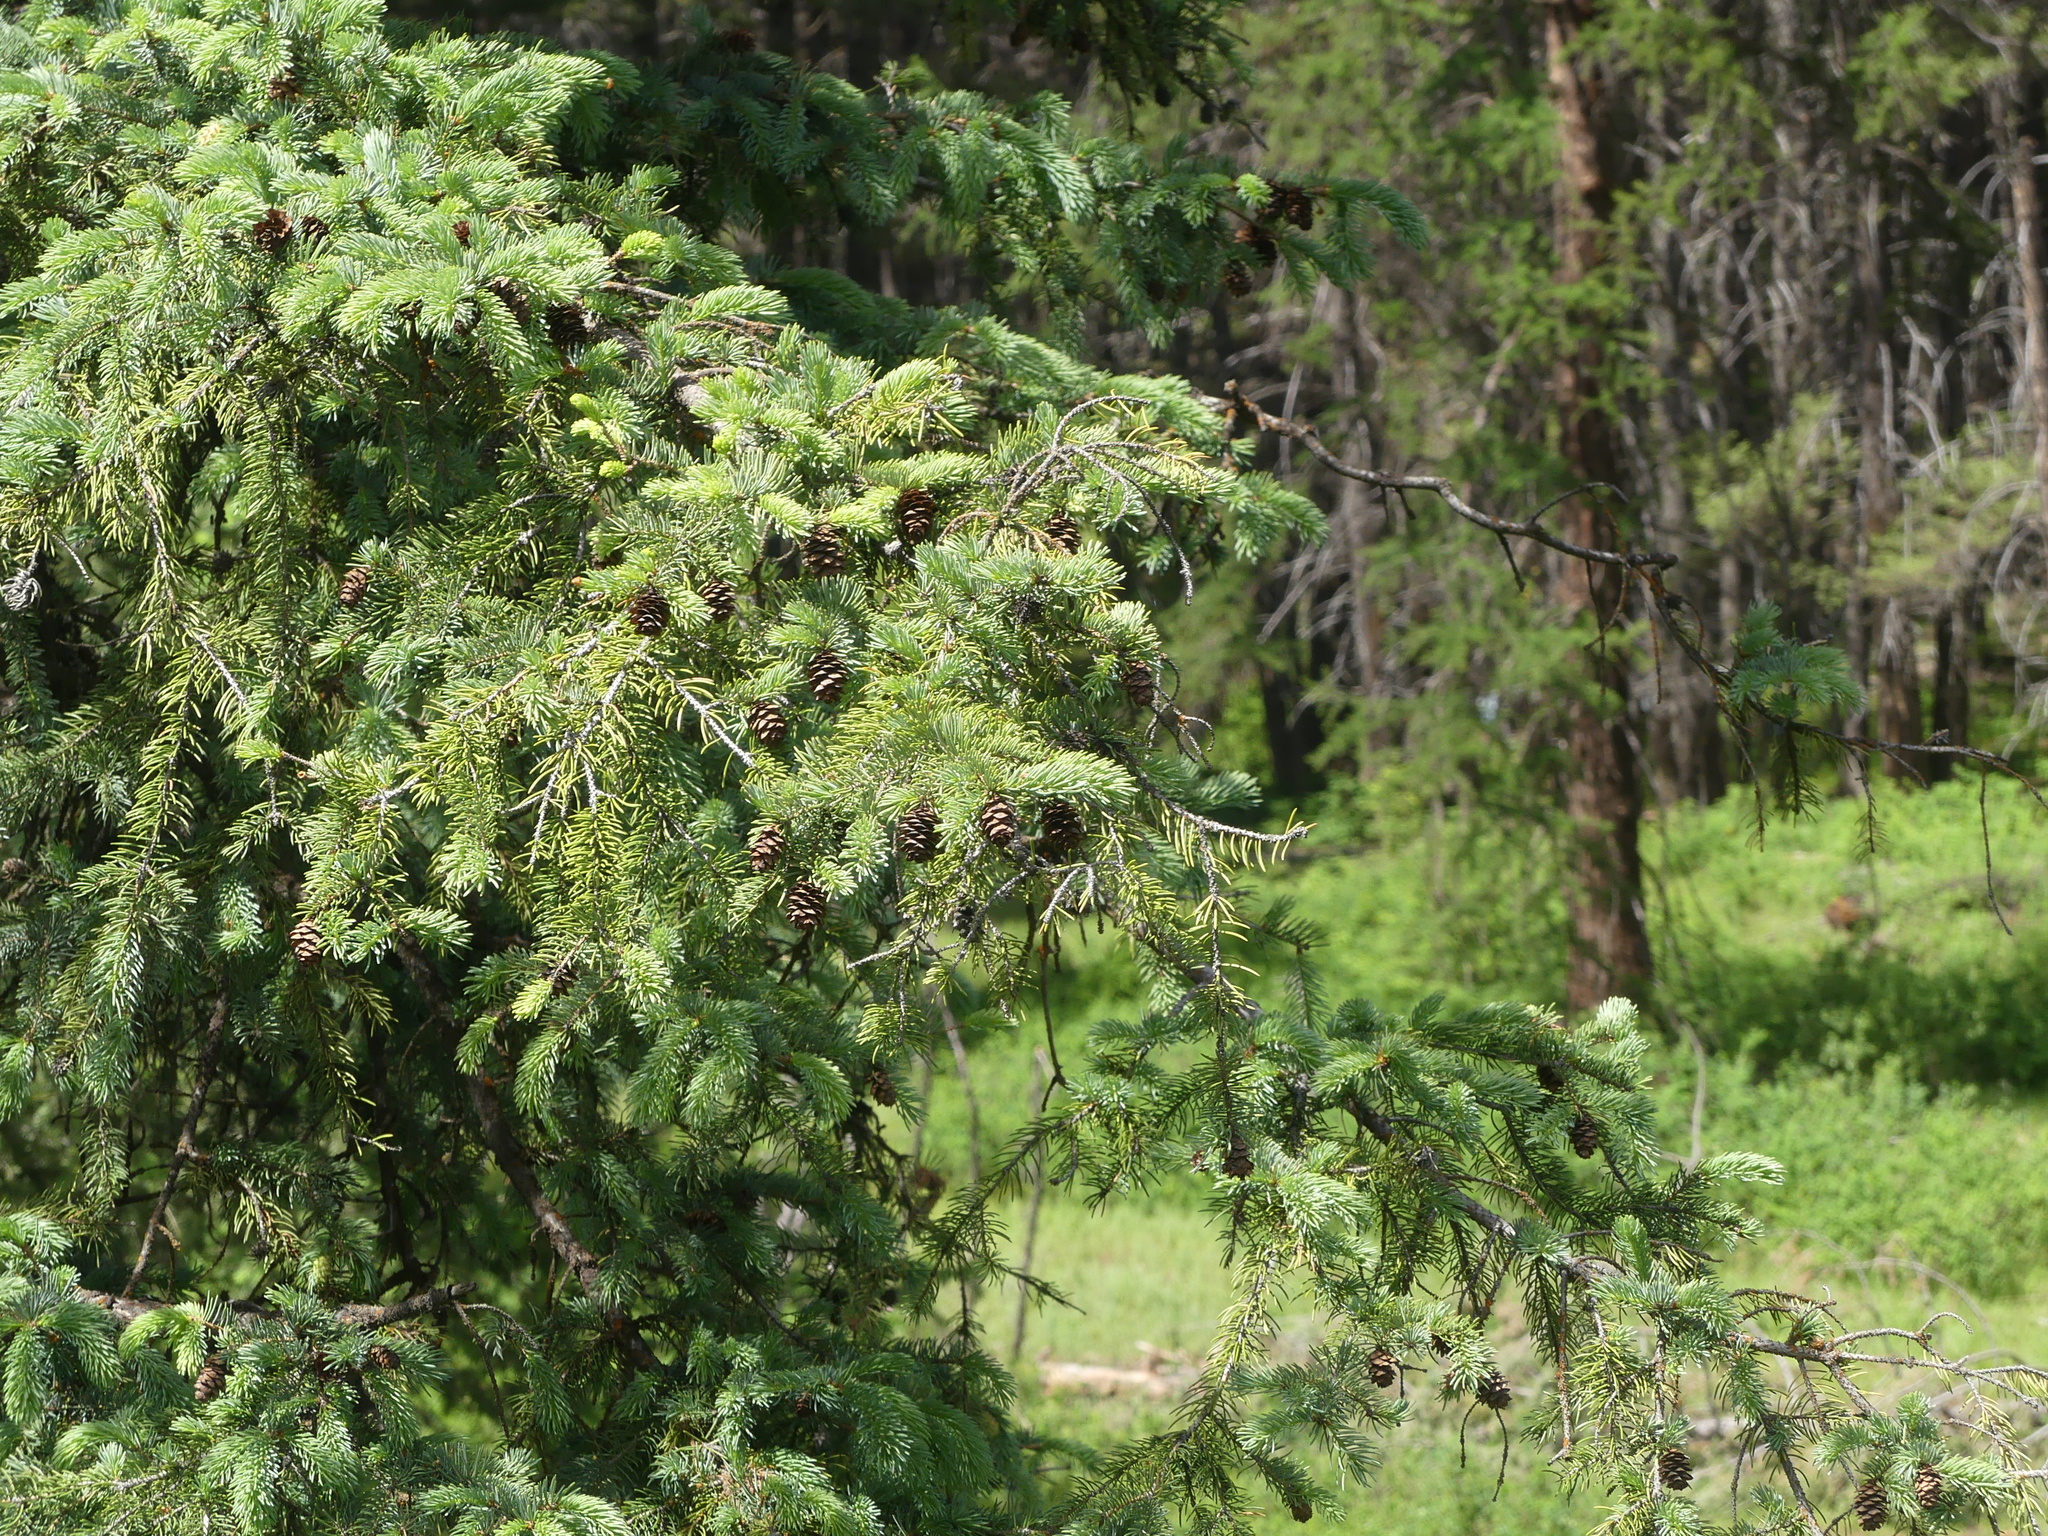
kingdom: Plantae
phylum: Tracheophyta
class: Pinopsida
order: Pinales
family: Pinaceae
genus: Pseudotsuga
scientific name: Pseudotsuga menziesii
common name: Douglas fir
